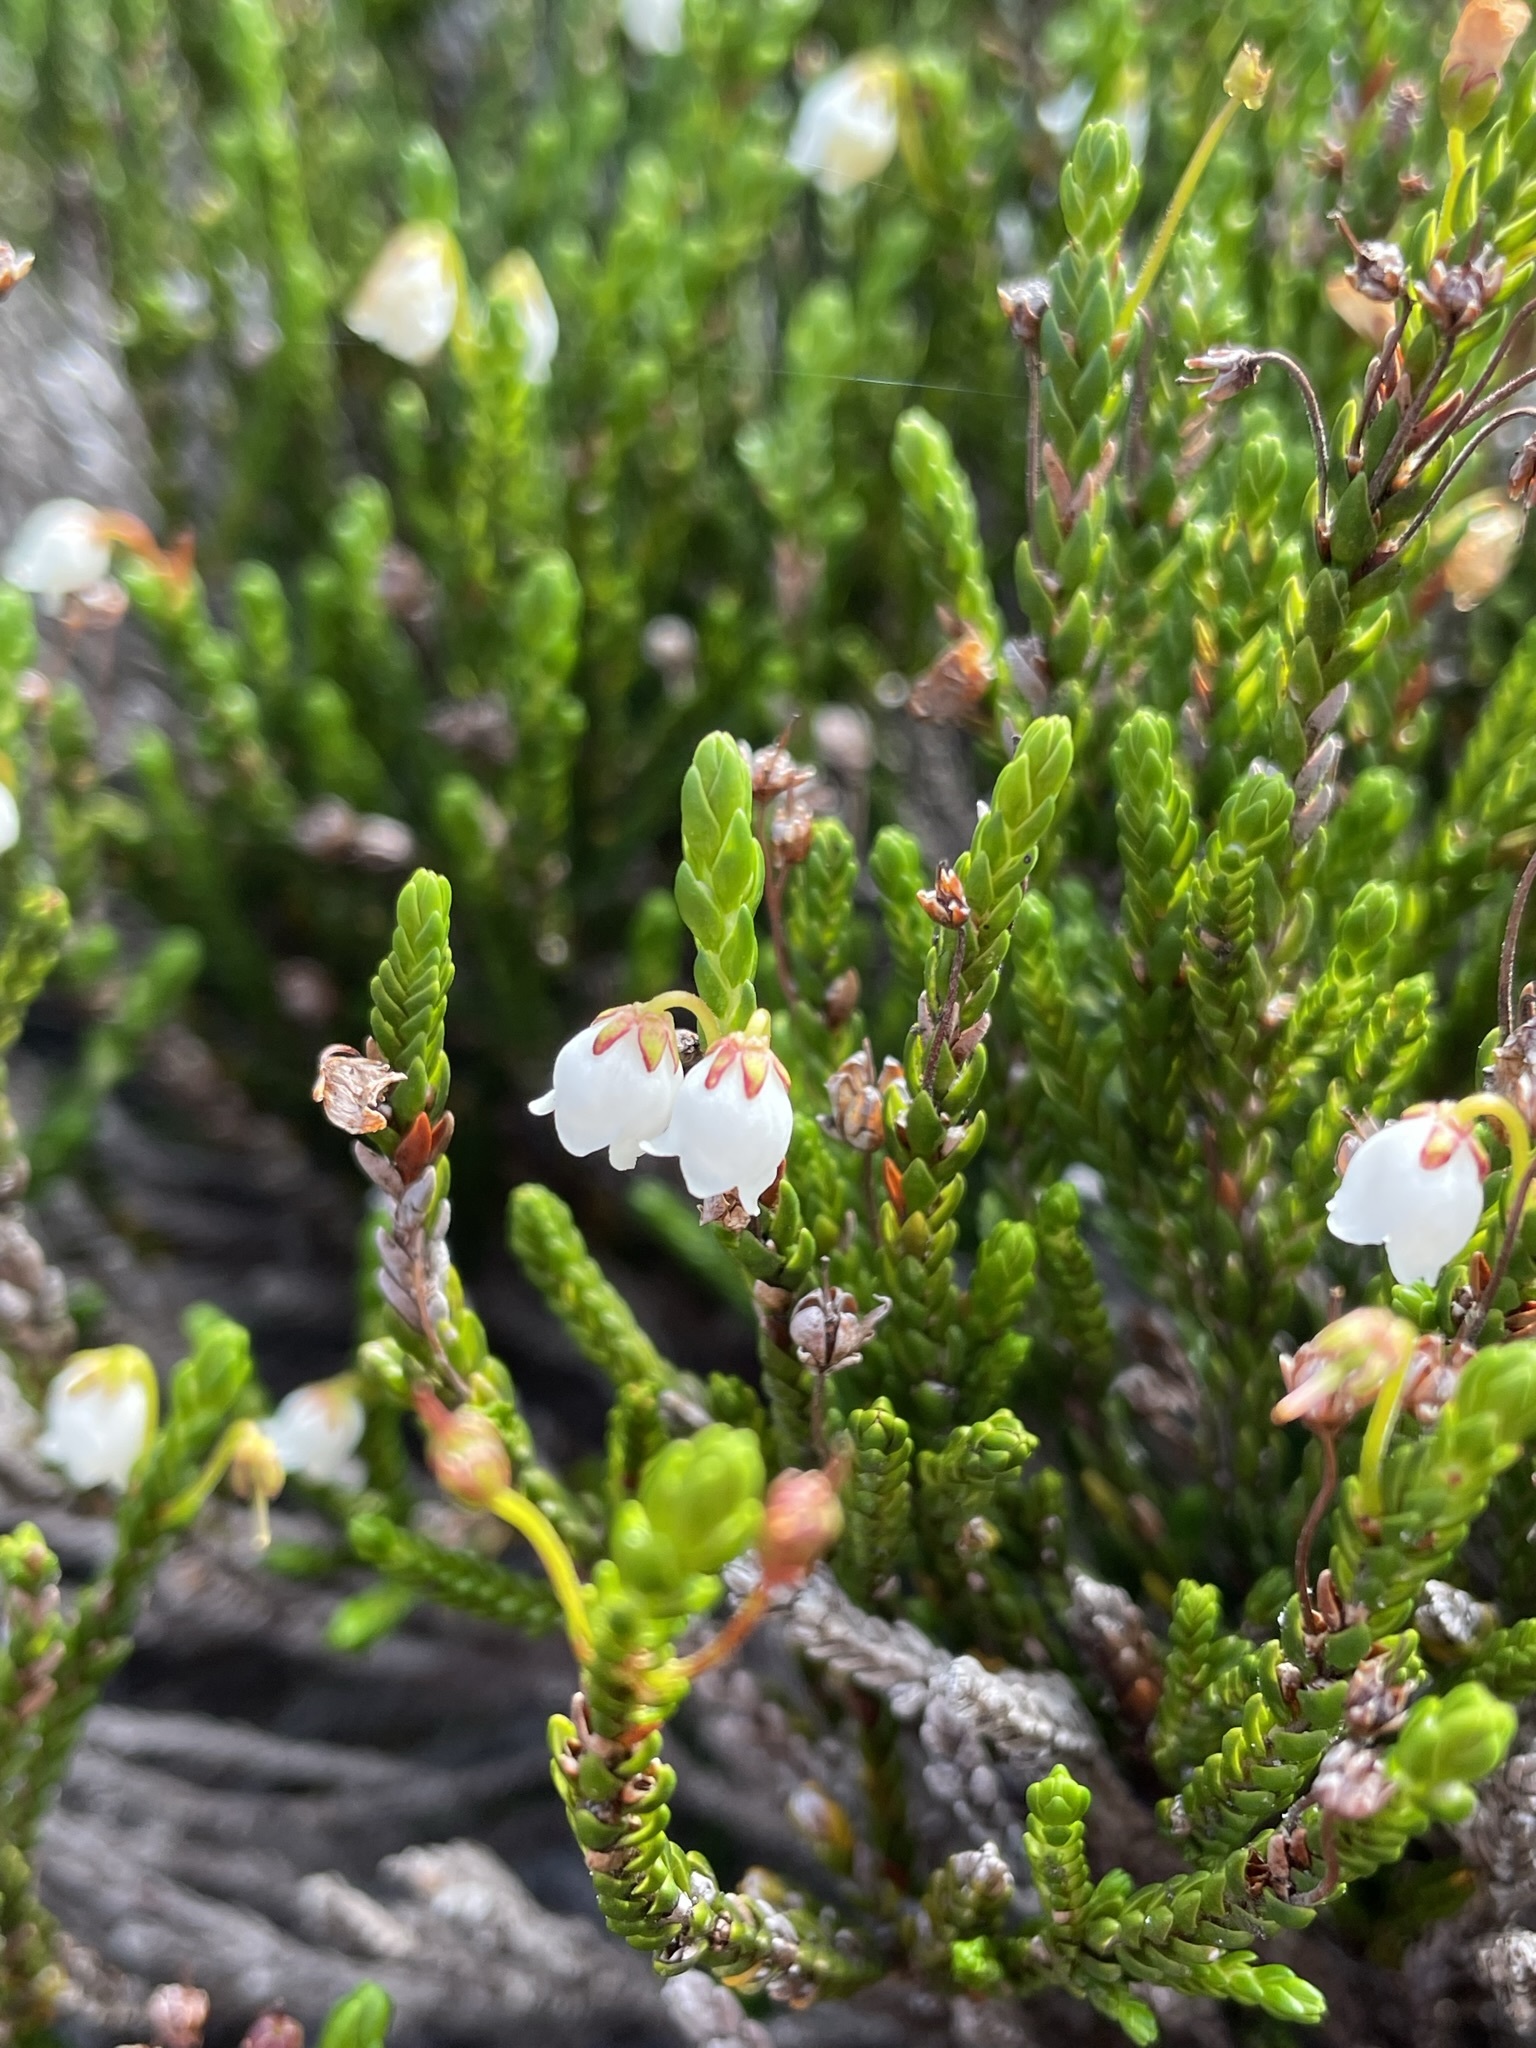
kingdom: Plantae
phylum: Tracheophyta
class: Magnoliopsida
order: Ericales
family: Ericaceae
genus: Cassiope
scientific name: Cassiope mertensiana
